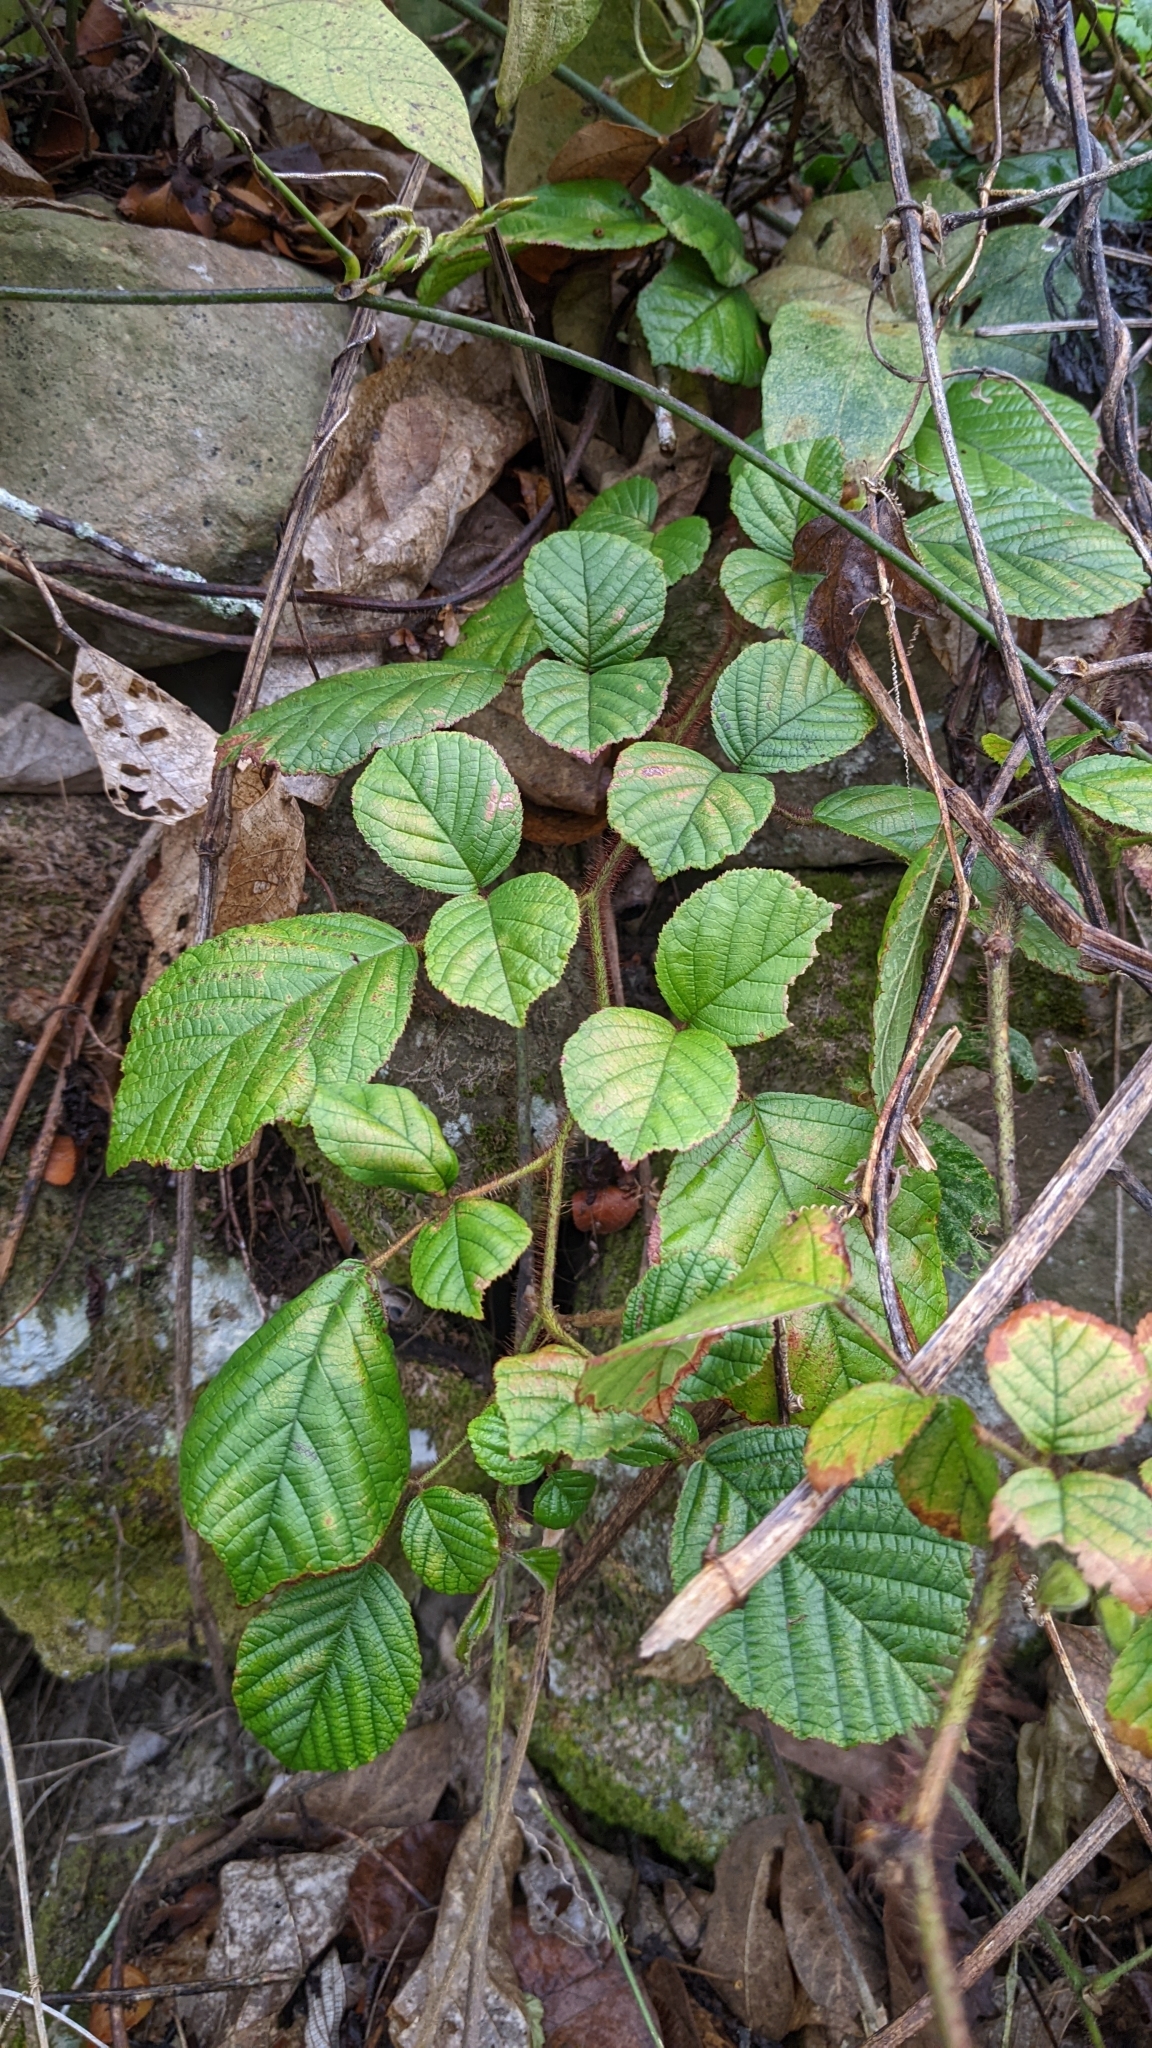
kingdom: Plantae
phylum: Tracheophyta
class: Magnoliopsida
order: Rosales
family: Rosaceae
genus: Rubus
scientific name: Rubus ellipticus
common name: Cheeseberry
